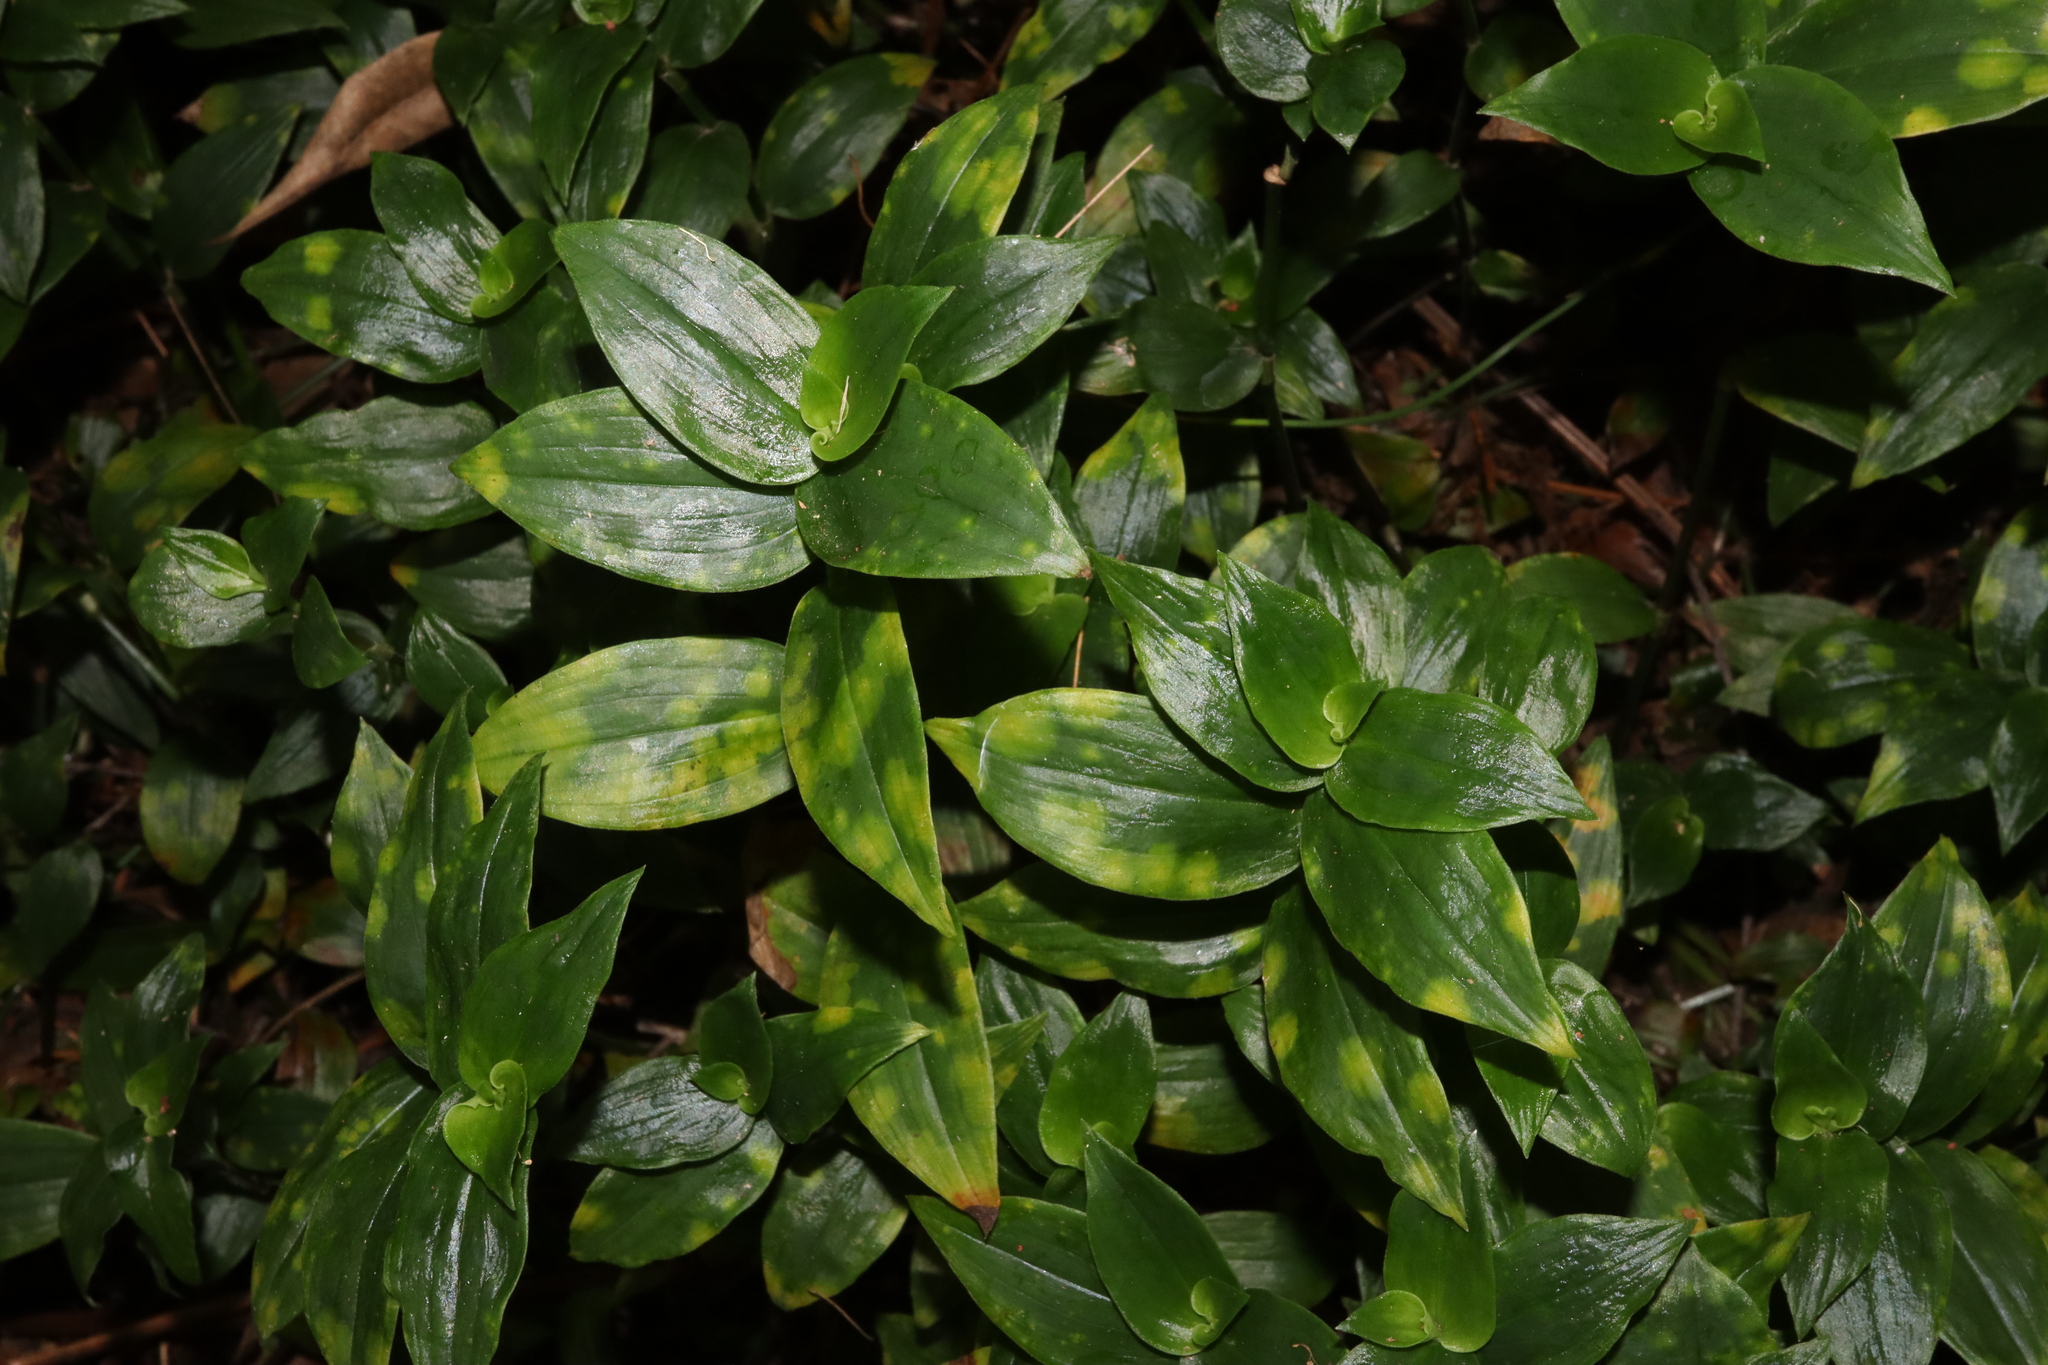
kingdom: Fungi
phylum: Basidiomycota
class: Exobasidiomycetes
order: Exobasidiales
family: Brachybasidiaceae
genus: Kordyana
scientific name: Kordyana brasiliensis
